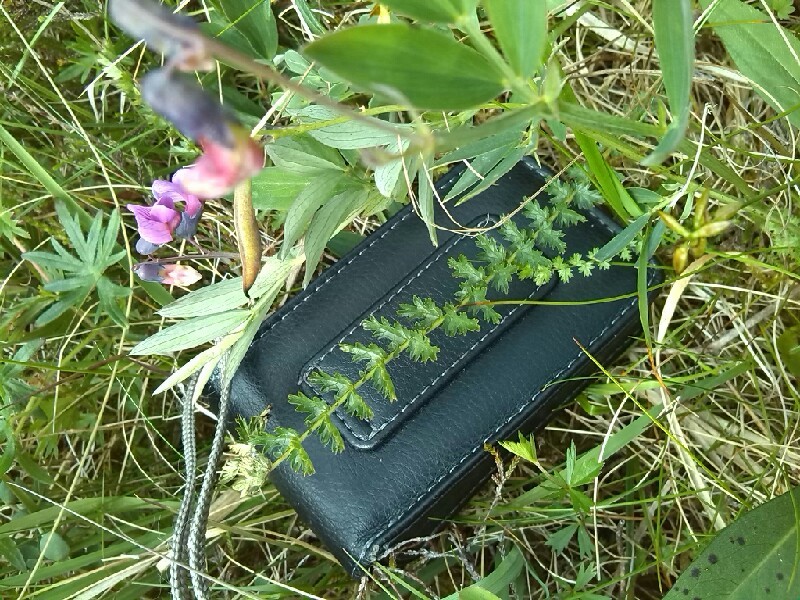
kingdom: Plantae
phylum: Tracheophyta
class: Magnoliopsida
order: Rosales
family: Rosaceae
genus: Filipendula
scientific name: Filipendula vulgaris
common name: Dropwort
